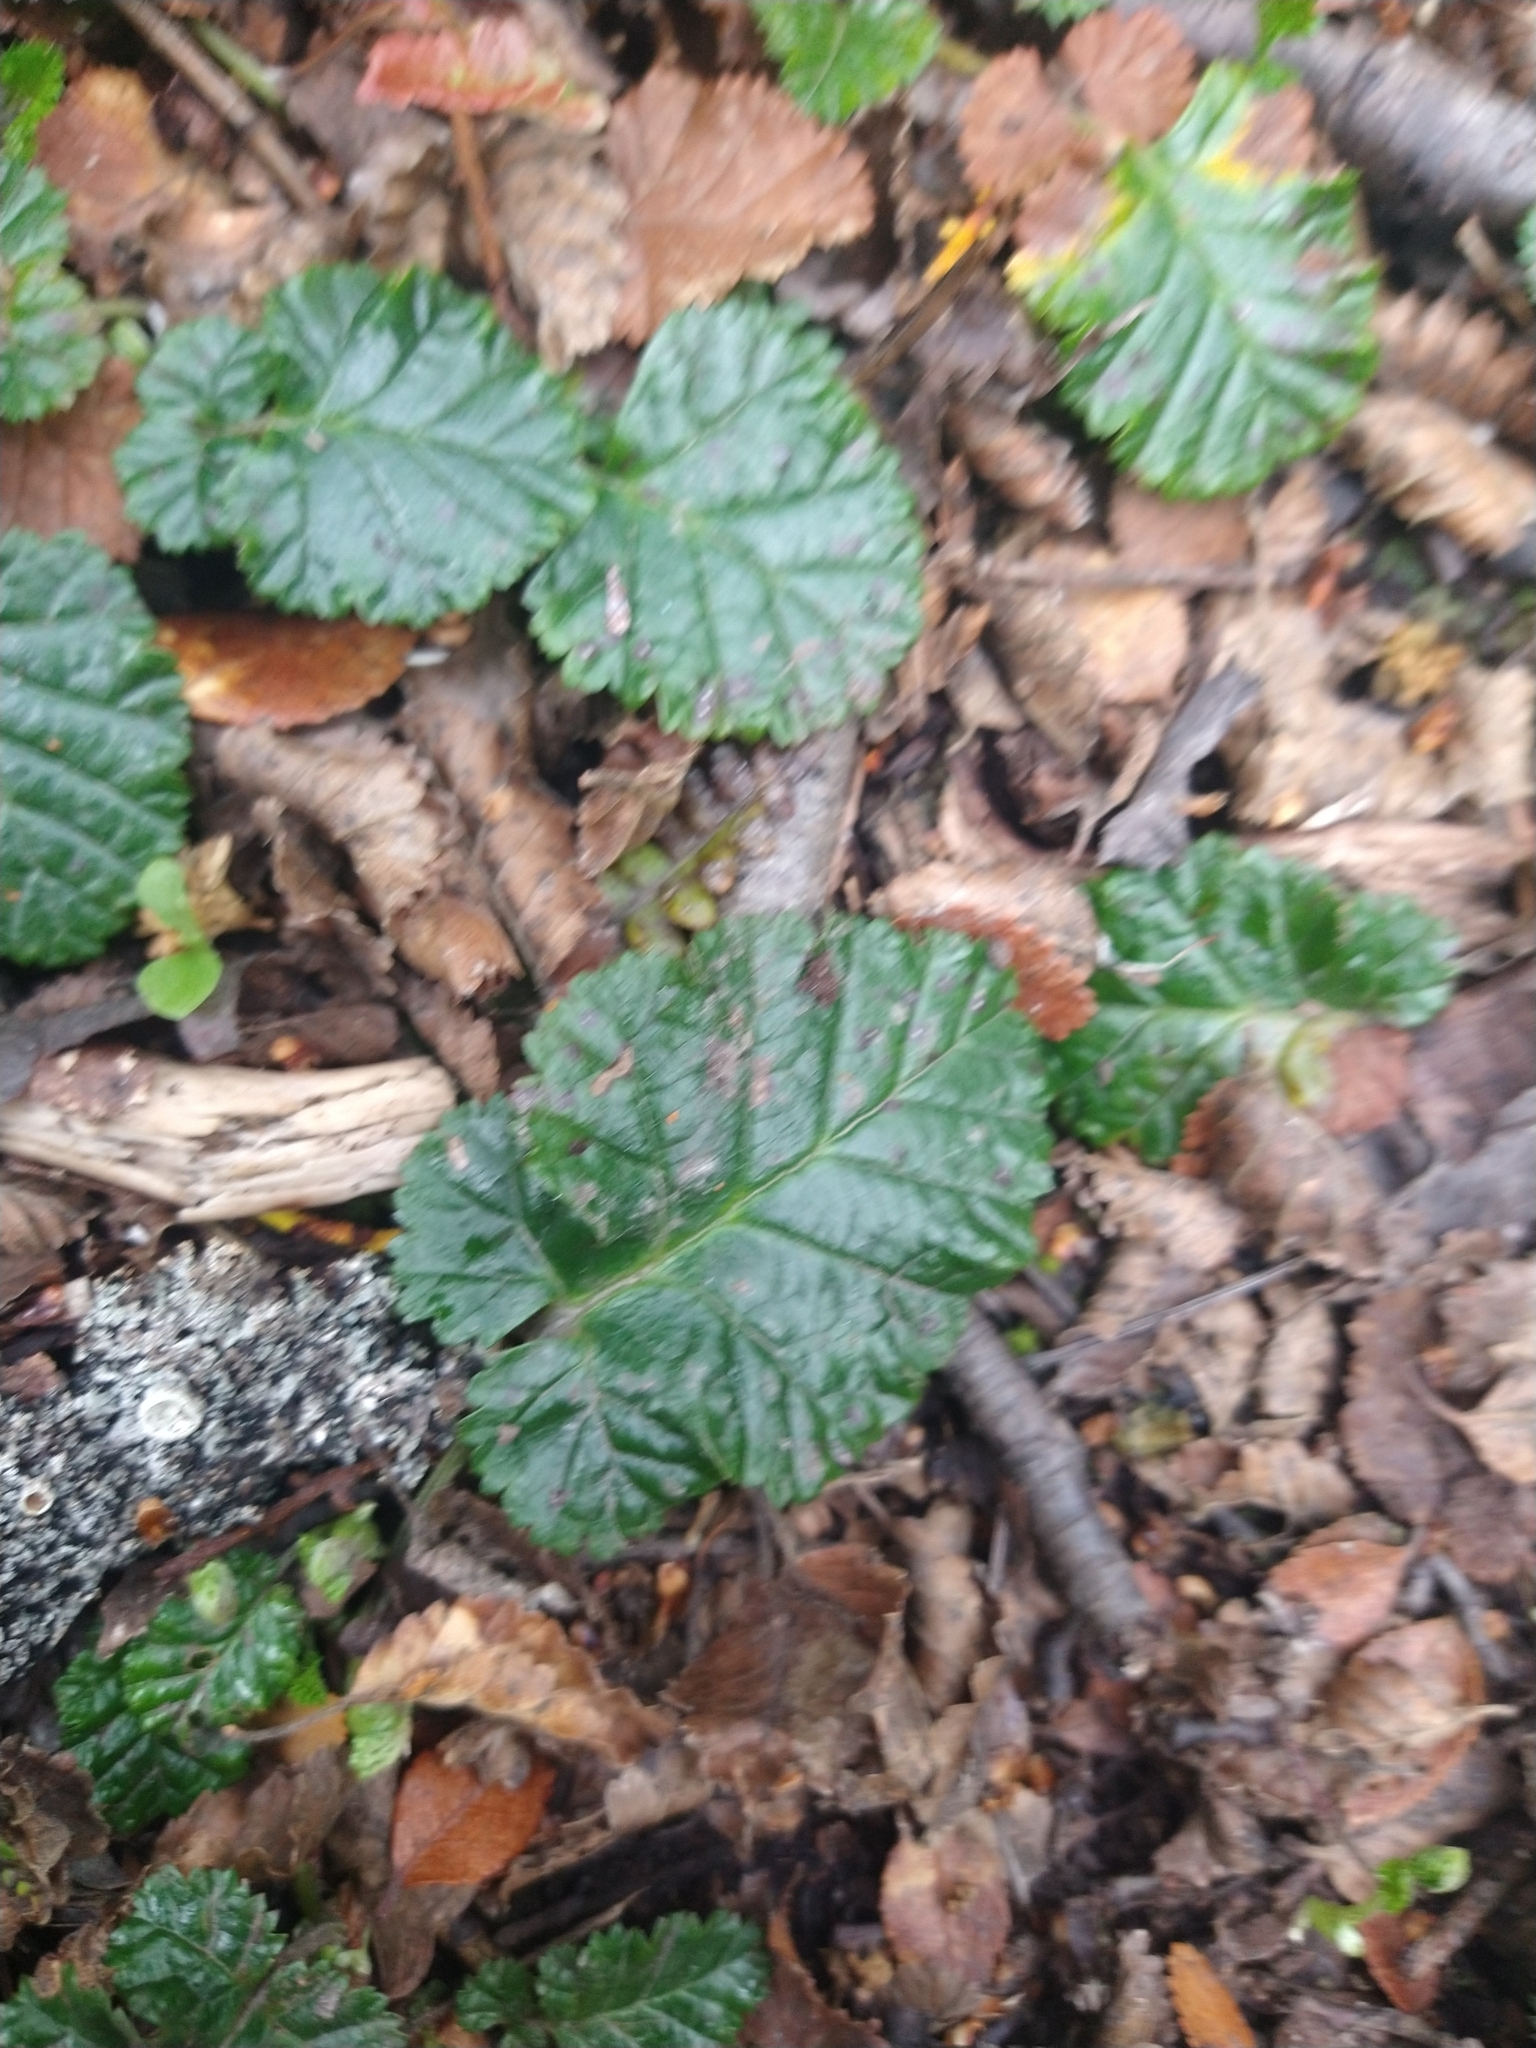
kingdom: Plantae
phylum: Tracheophyta
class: Magnoliopsida
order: Rosales
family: Rosaceae
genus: Rubus
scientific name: Rubus geoides
